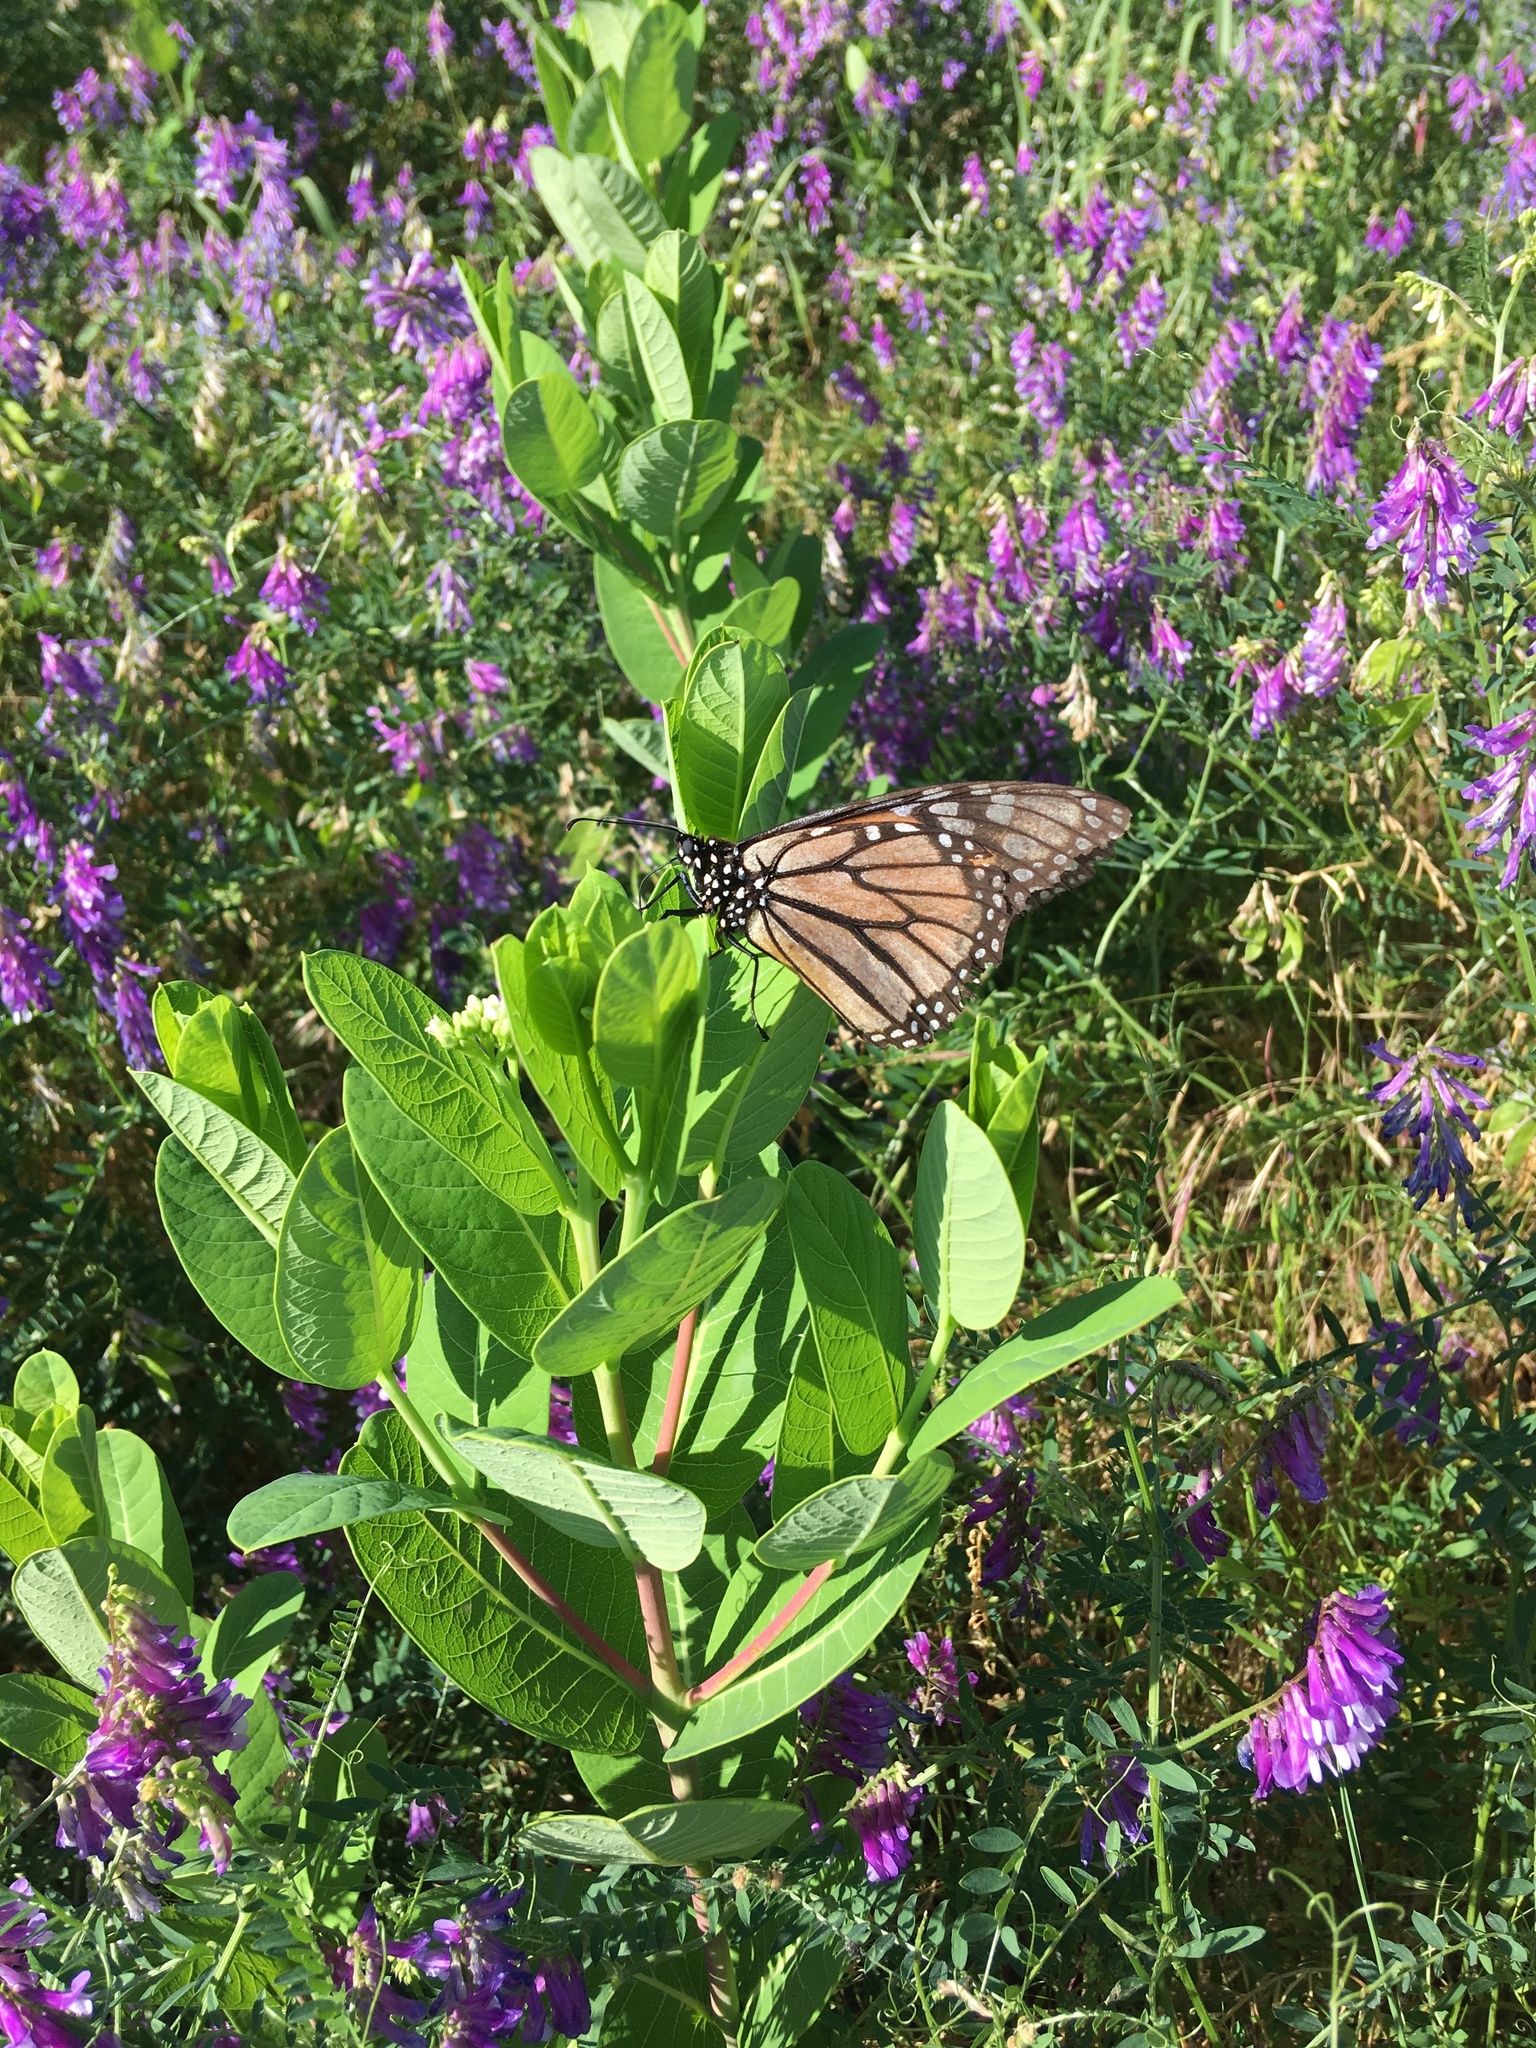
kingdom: Animalia
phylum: Arthropoda
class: Insecta
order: Lepidoptera
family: Nymphalidae
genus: Danaus
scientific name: Danaus plexippus
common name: Monarch
